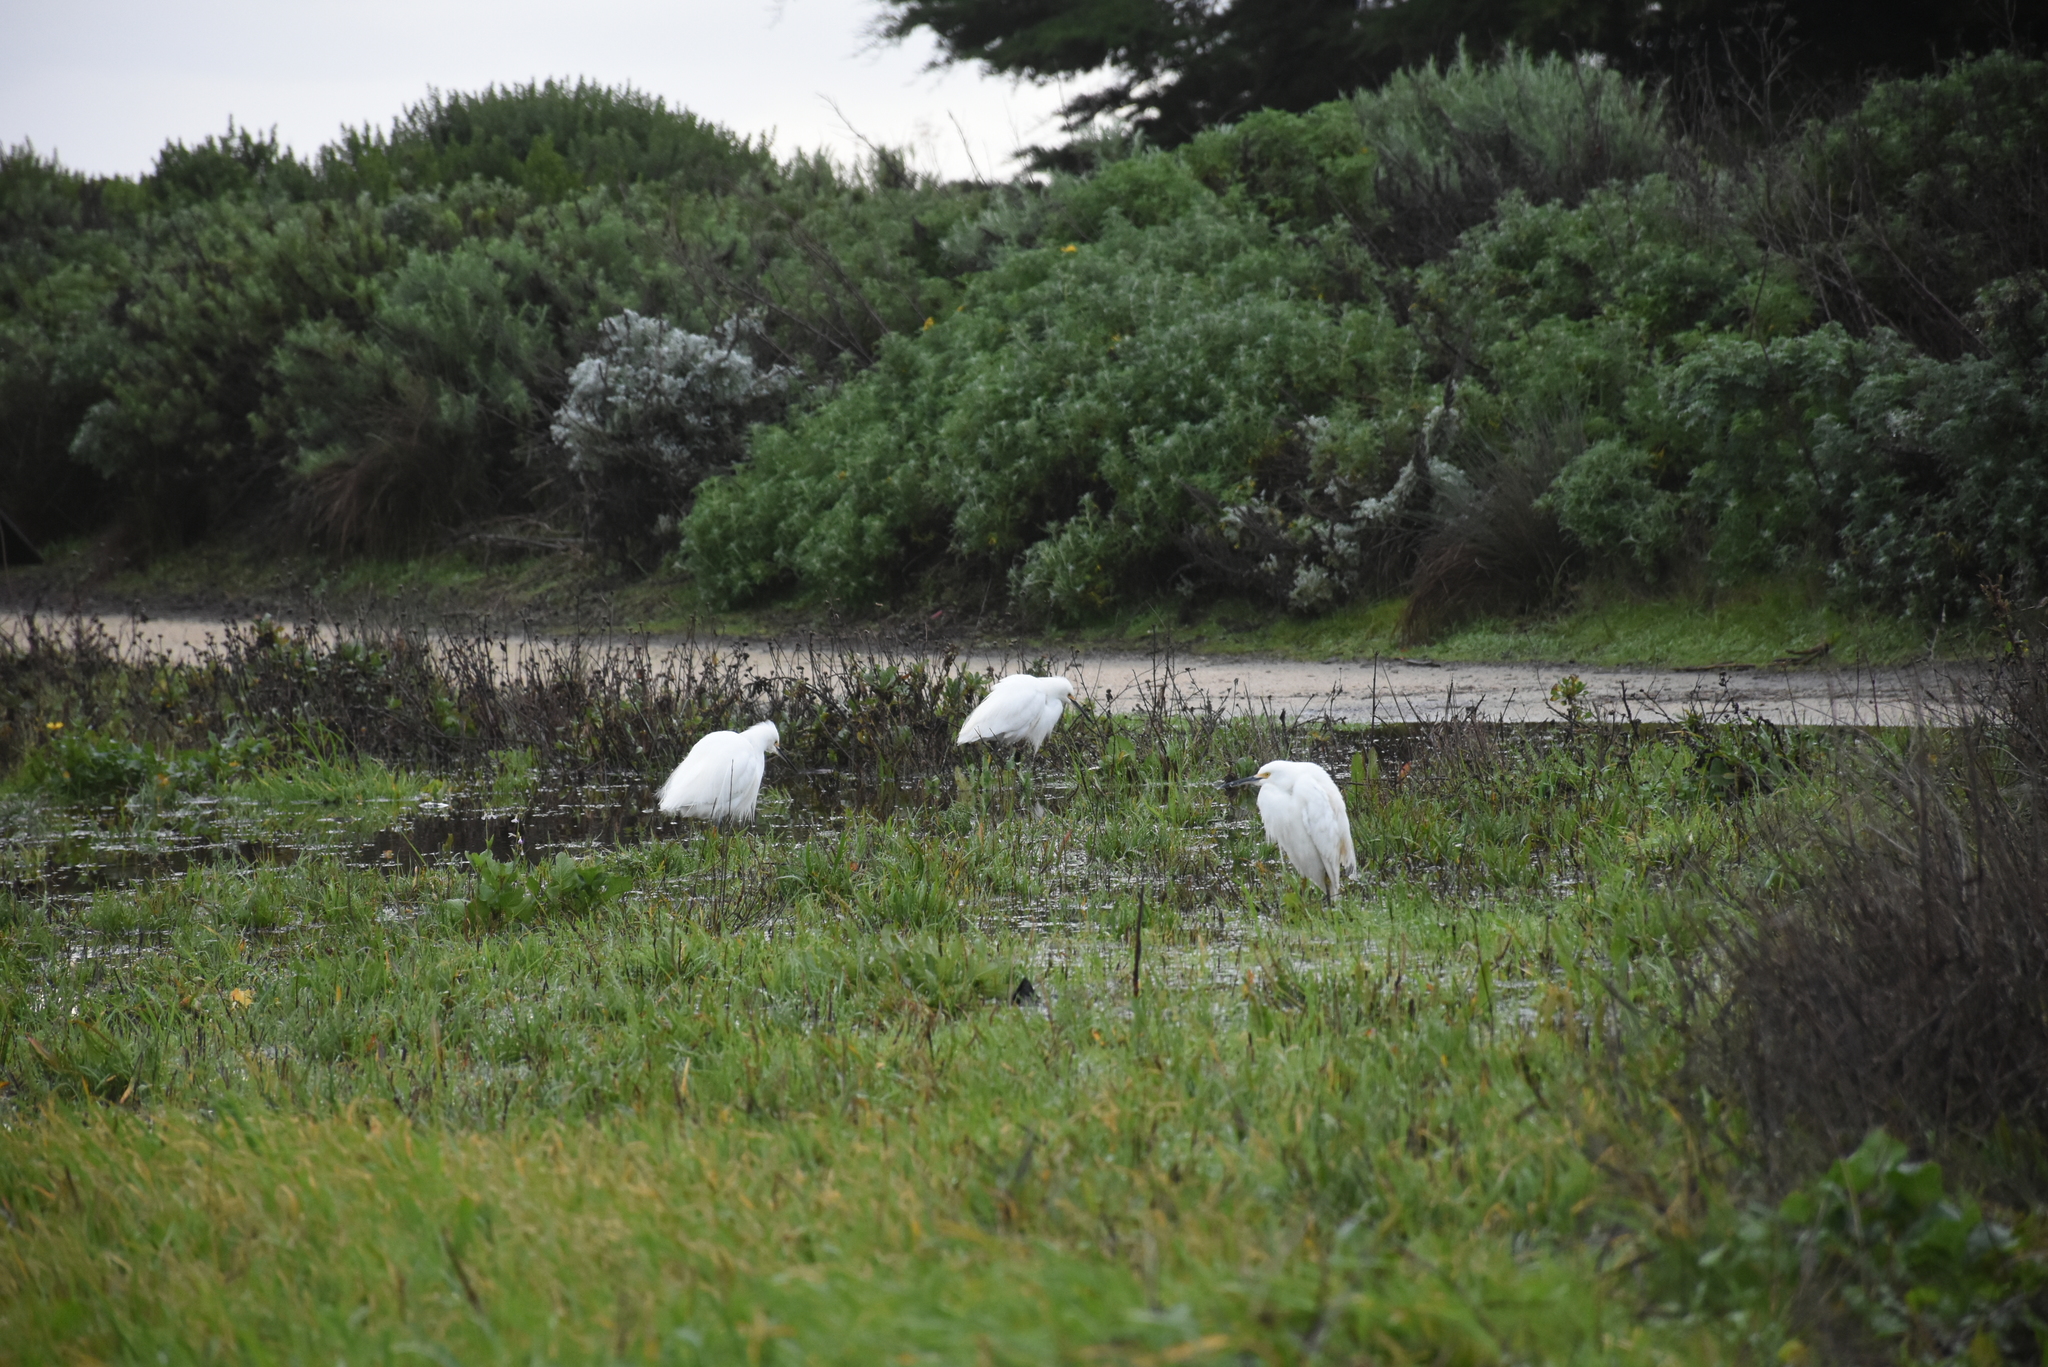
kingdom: Animalia
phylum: Chordata
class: Aves
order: Pelecaniformes
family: Ardeidae
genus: Egretta
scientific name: Egretta thula
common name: Snowy egret
